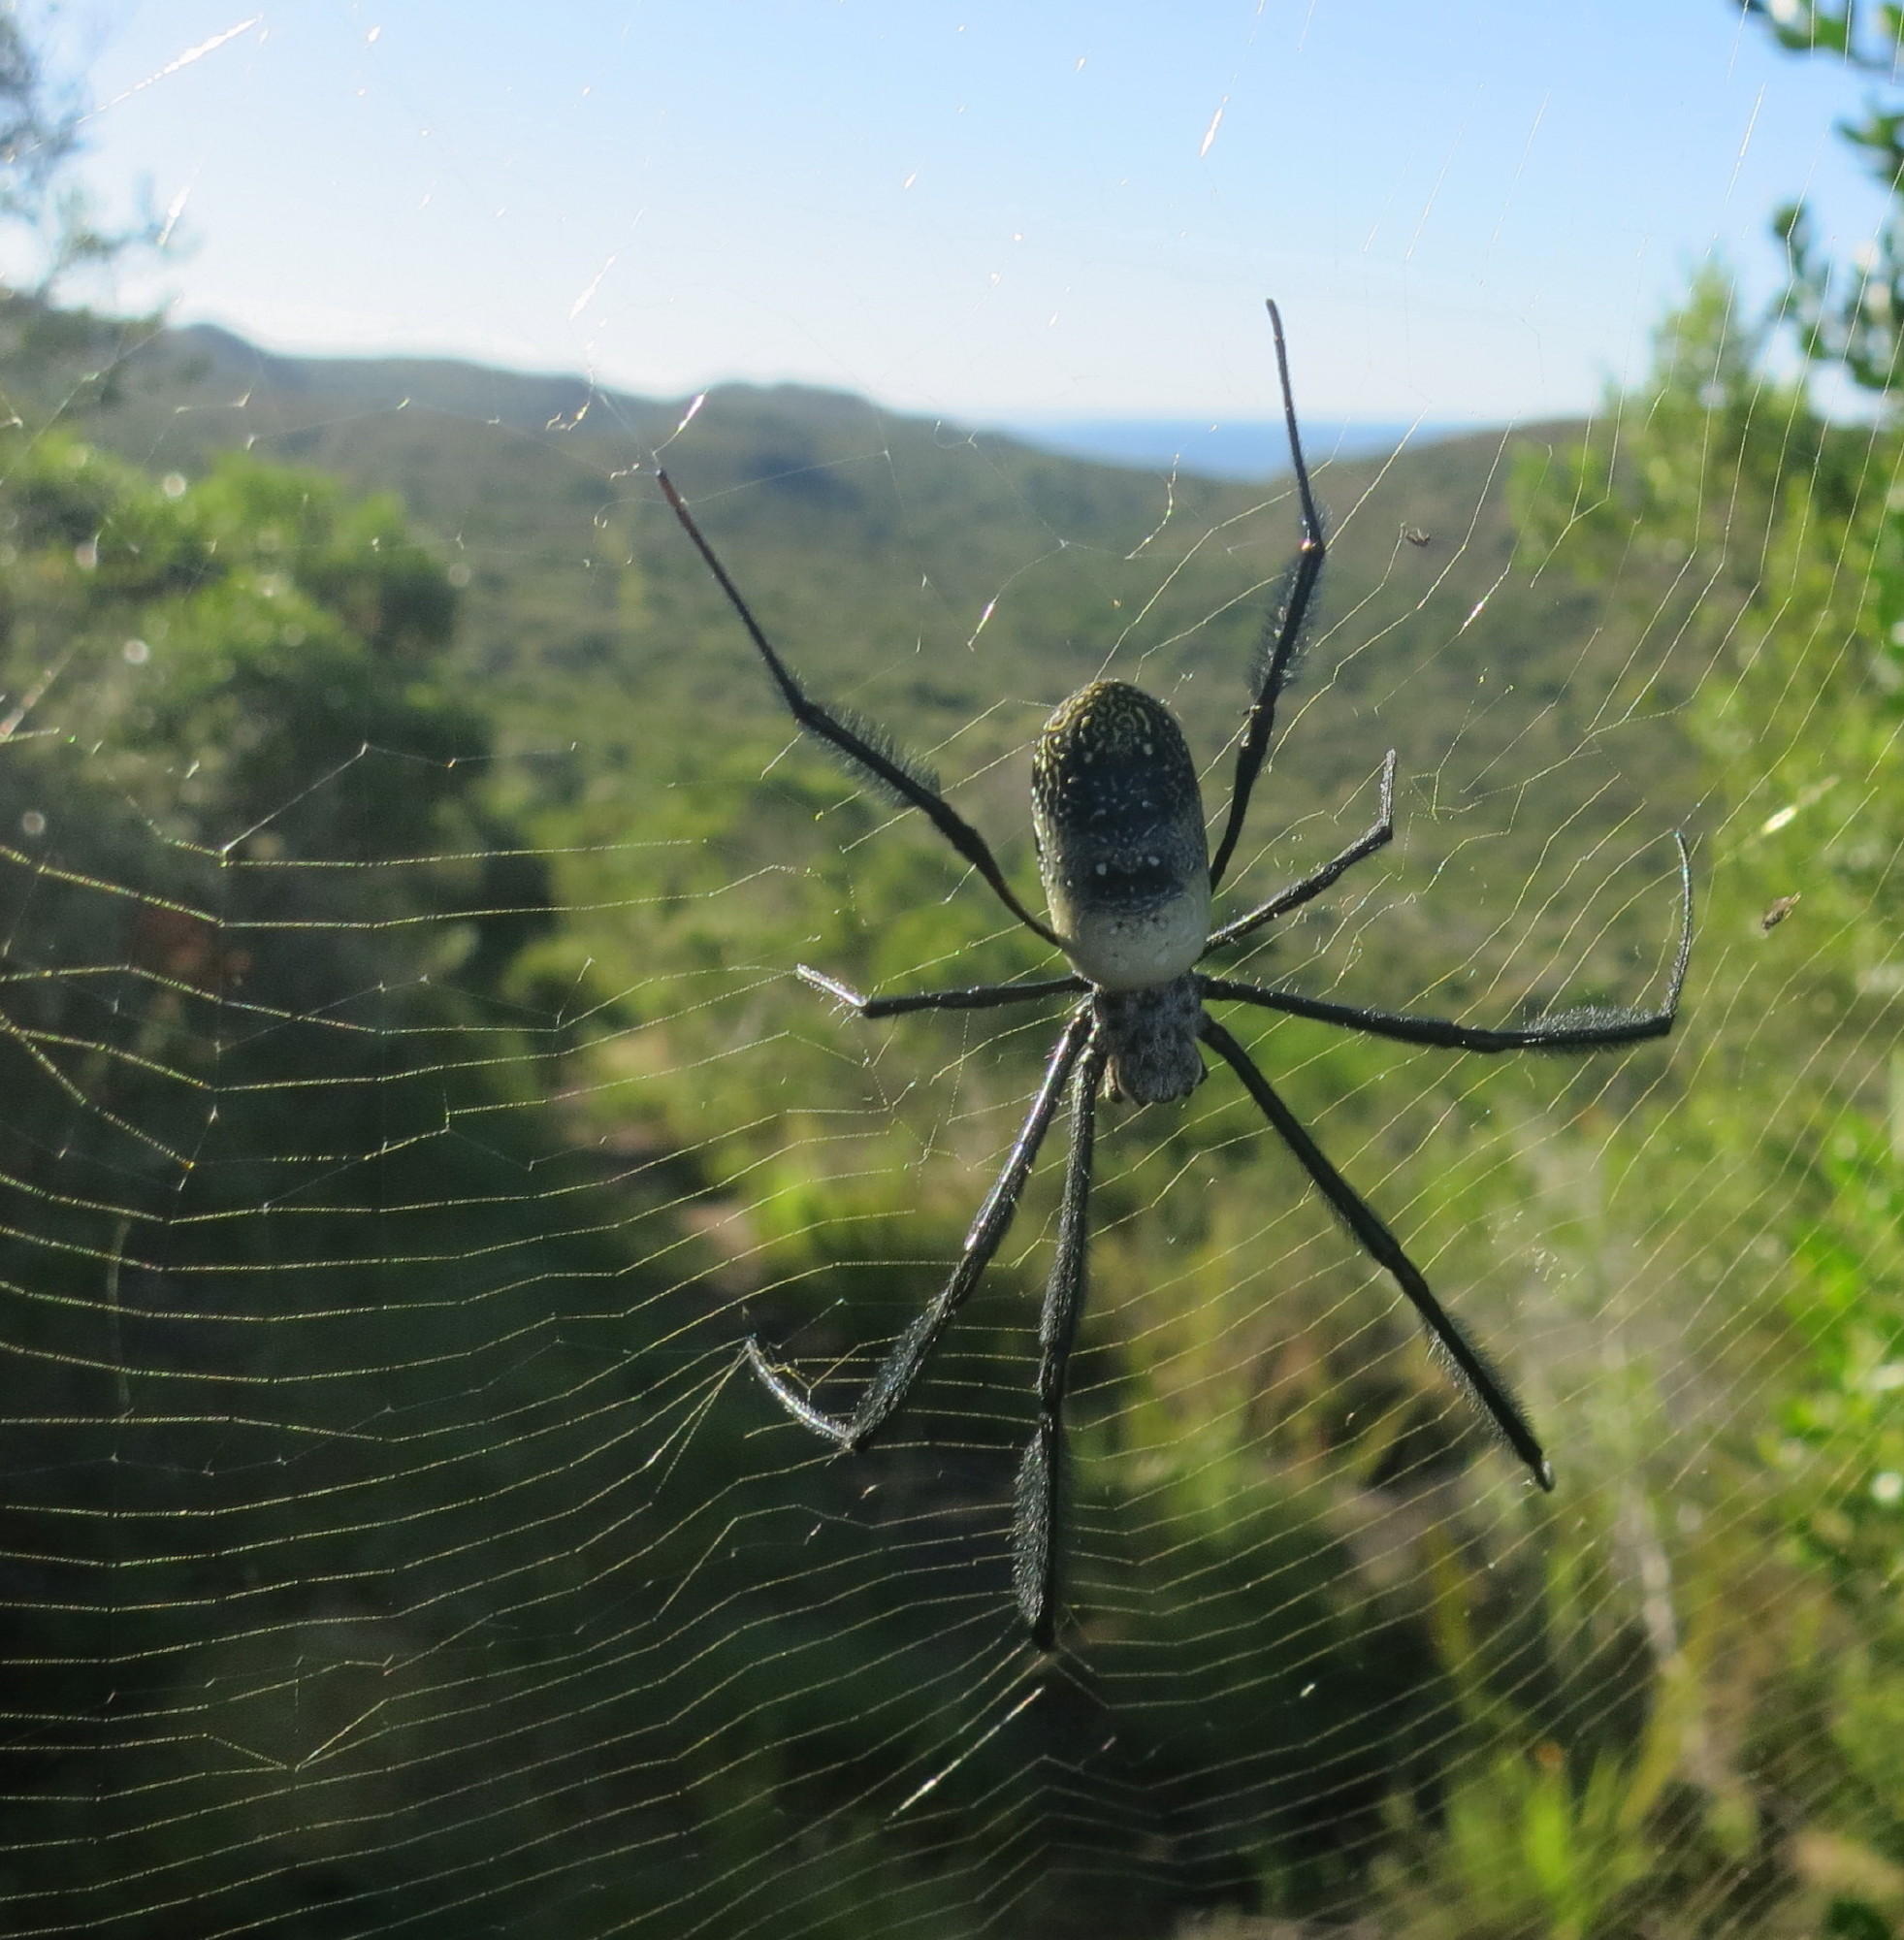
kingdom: Animalia
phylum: Arthropoda
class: Arachnida
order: Araneae
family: Araneidae
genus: Trichonephila
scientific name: Trichonephila fenestrata
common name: Hairy golden orb weaver
